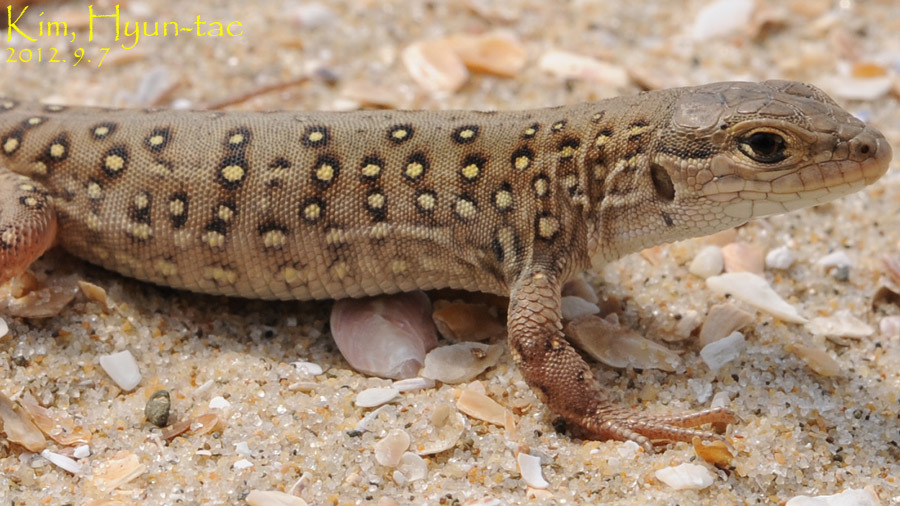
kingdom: Animalia
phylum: Chordata
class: Squamata
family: Lacertidae
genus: Eremias
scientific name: Eremias argus
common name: Mongolia racerunner
